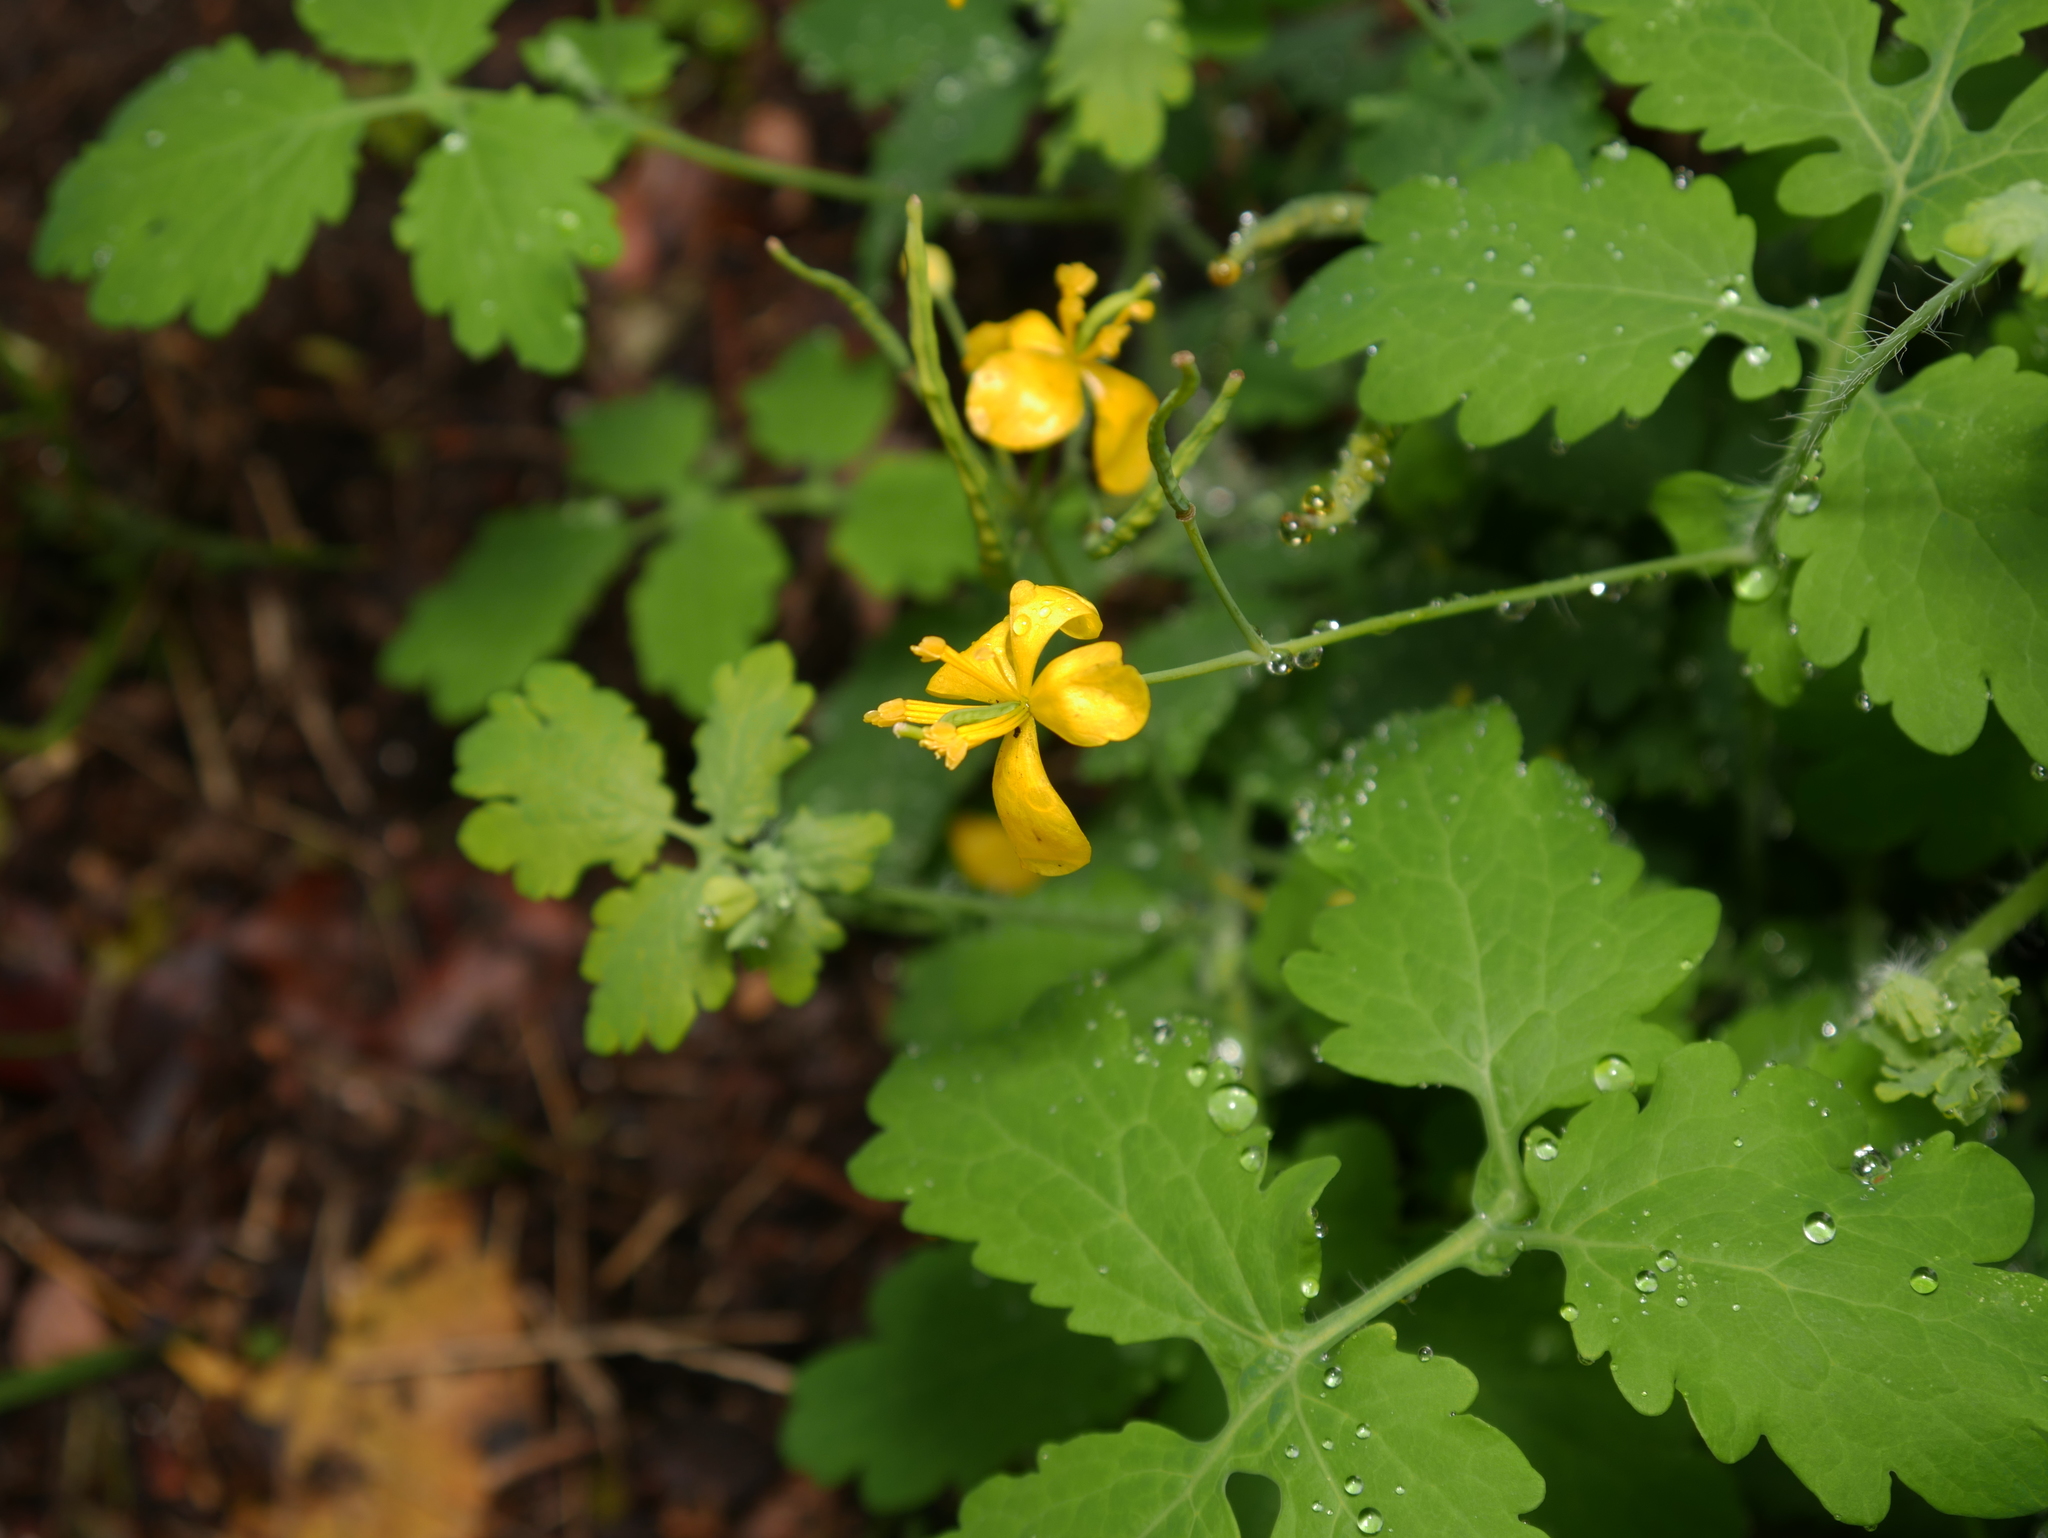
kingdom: Plantae
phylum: Tracheophyta
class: Magnoliopsida
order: Ranunculales
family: Papaveraceae
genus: Chelidonium
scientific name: Chelidonium majus
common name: Greater celandine
